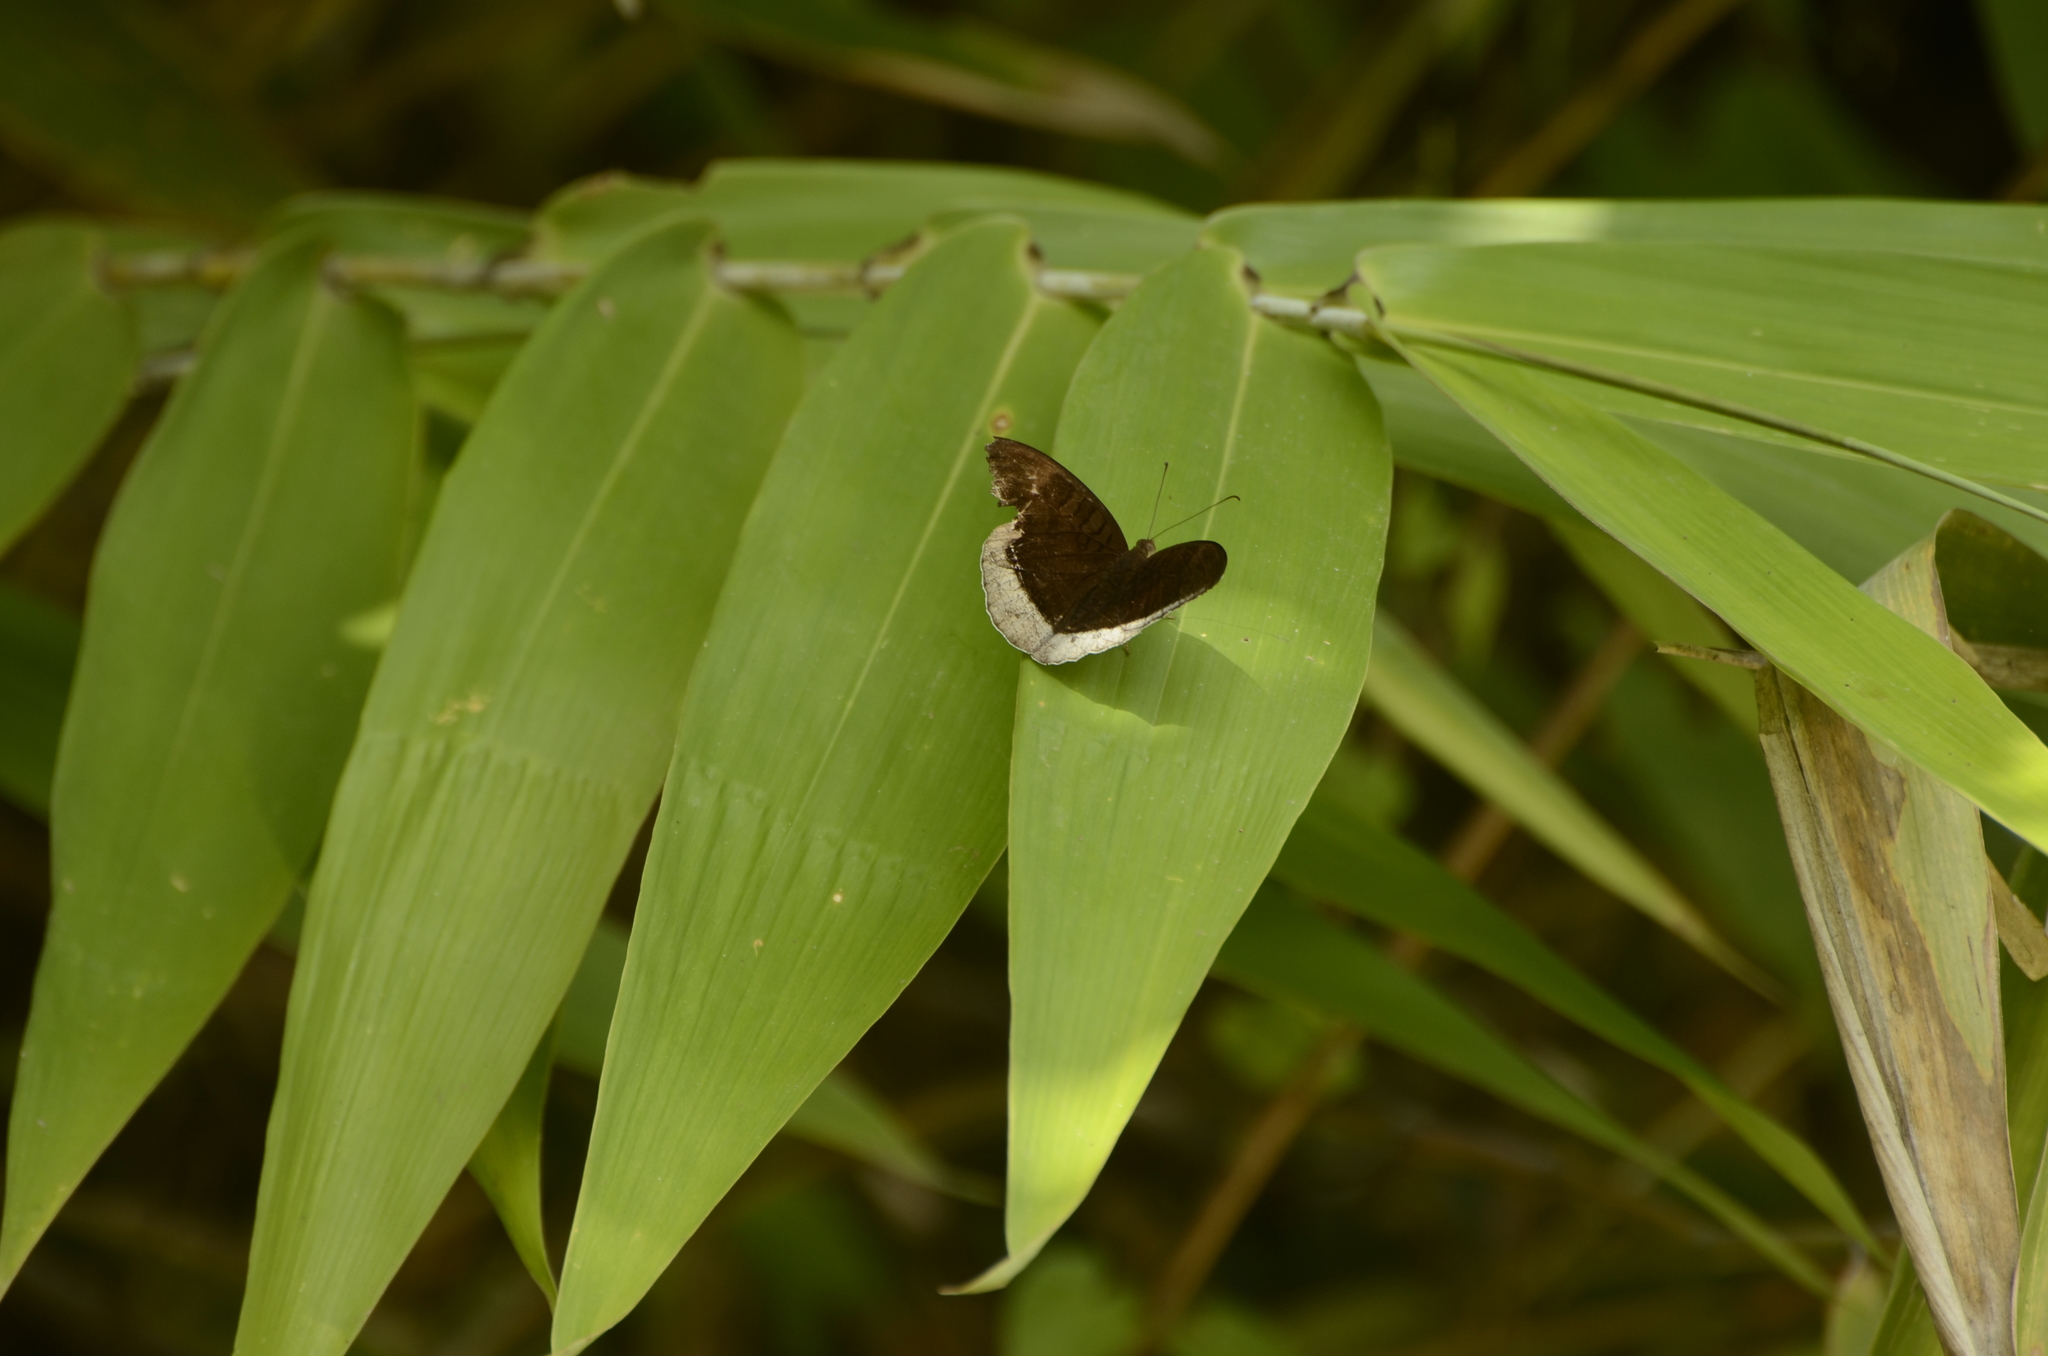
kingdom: Animalia
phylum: Arthropoda
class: Insecta
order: Lepidoptera
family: Nymphalidae
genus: Tanaecia
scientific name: Tanaecia lepidea
